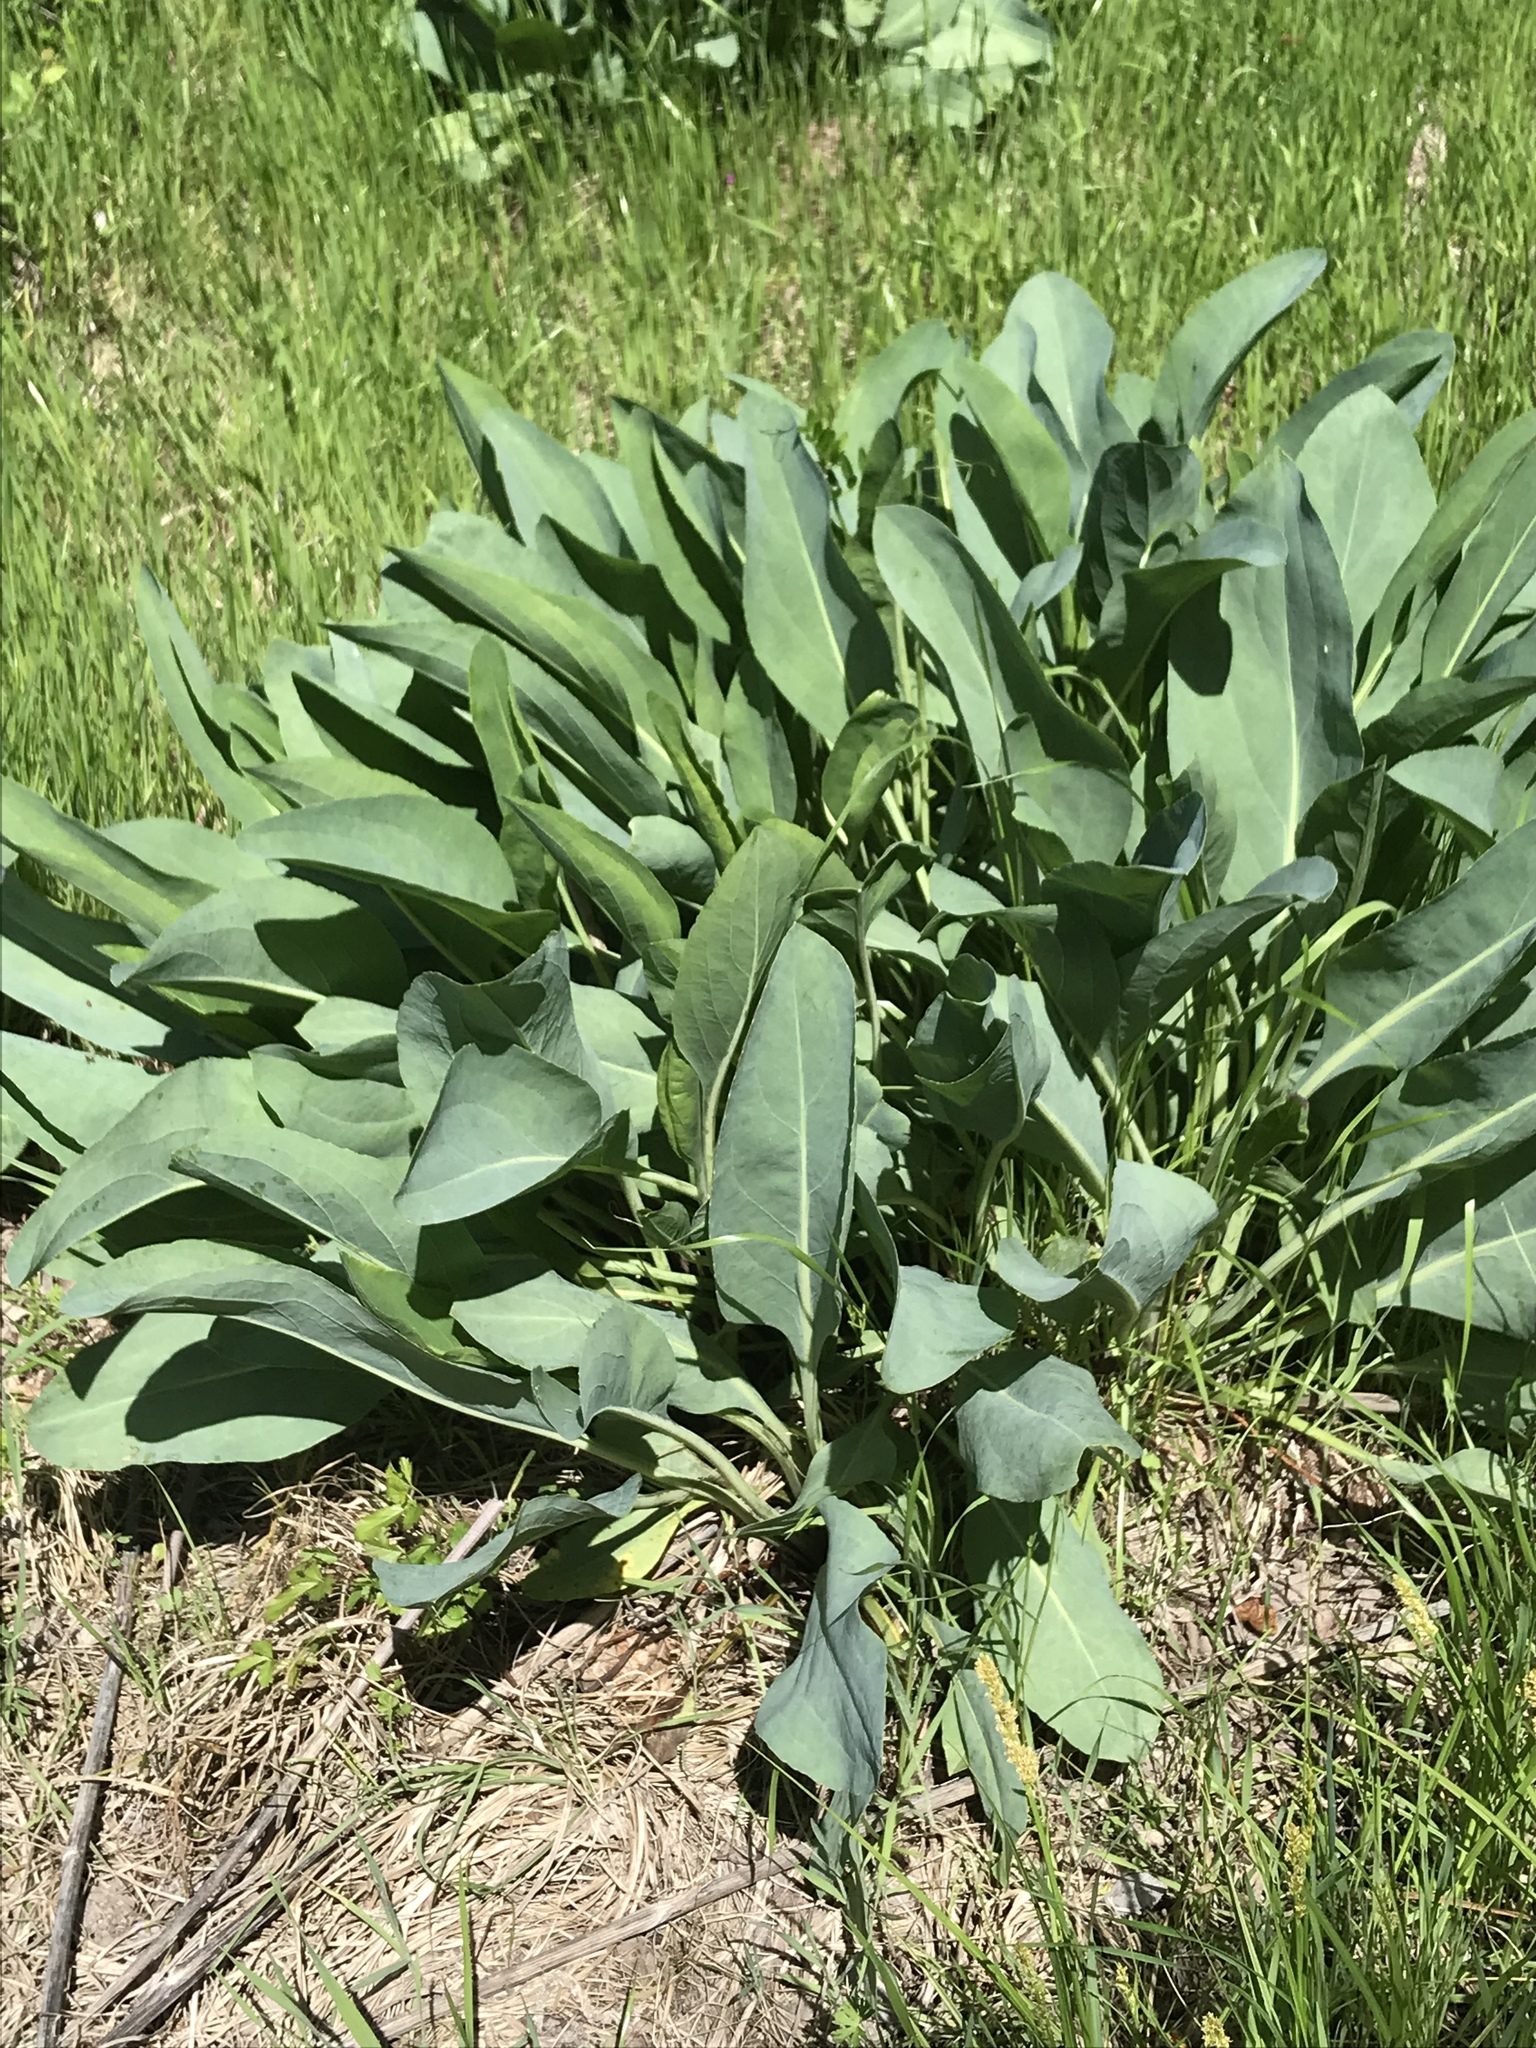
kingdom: Plantae
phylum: Tracheophyta
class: Magnoliopsida
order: Asterales
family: Asteraceae
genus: Rudbeckia
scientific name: Rudbeckia maxima
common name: Cabbage coneflower
